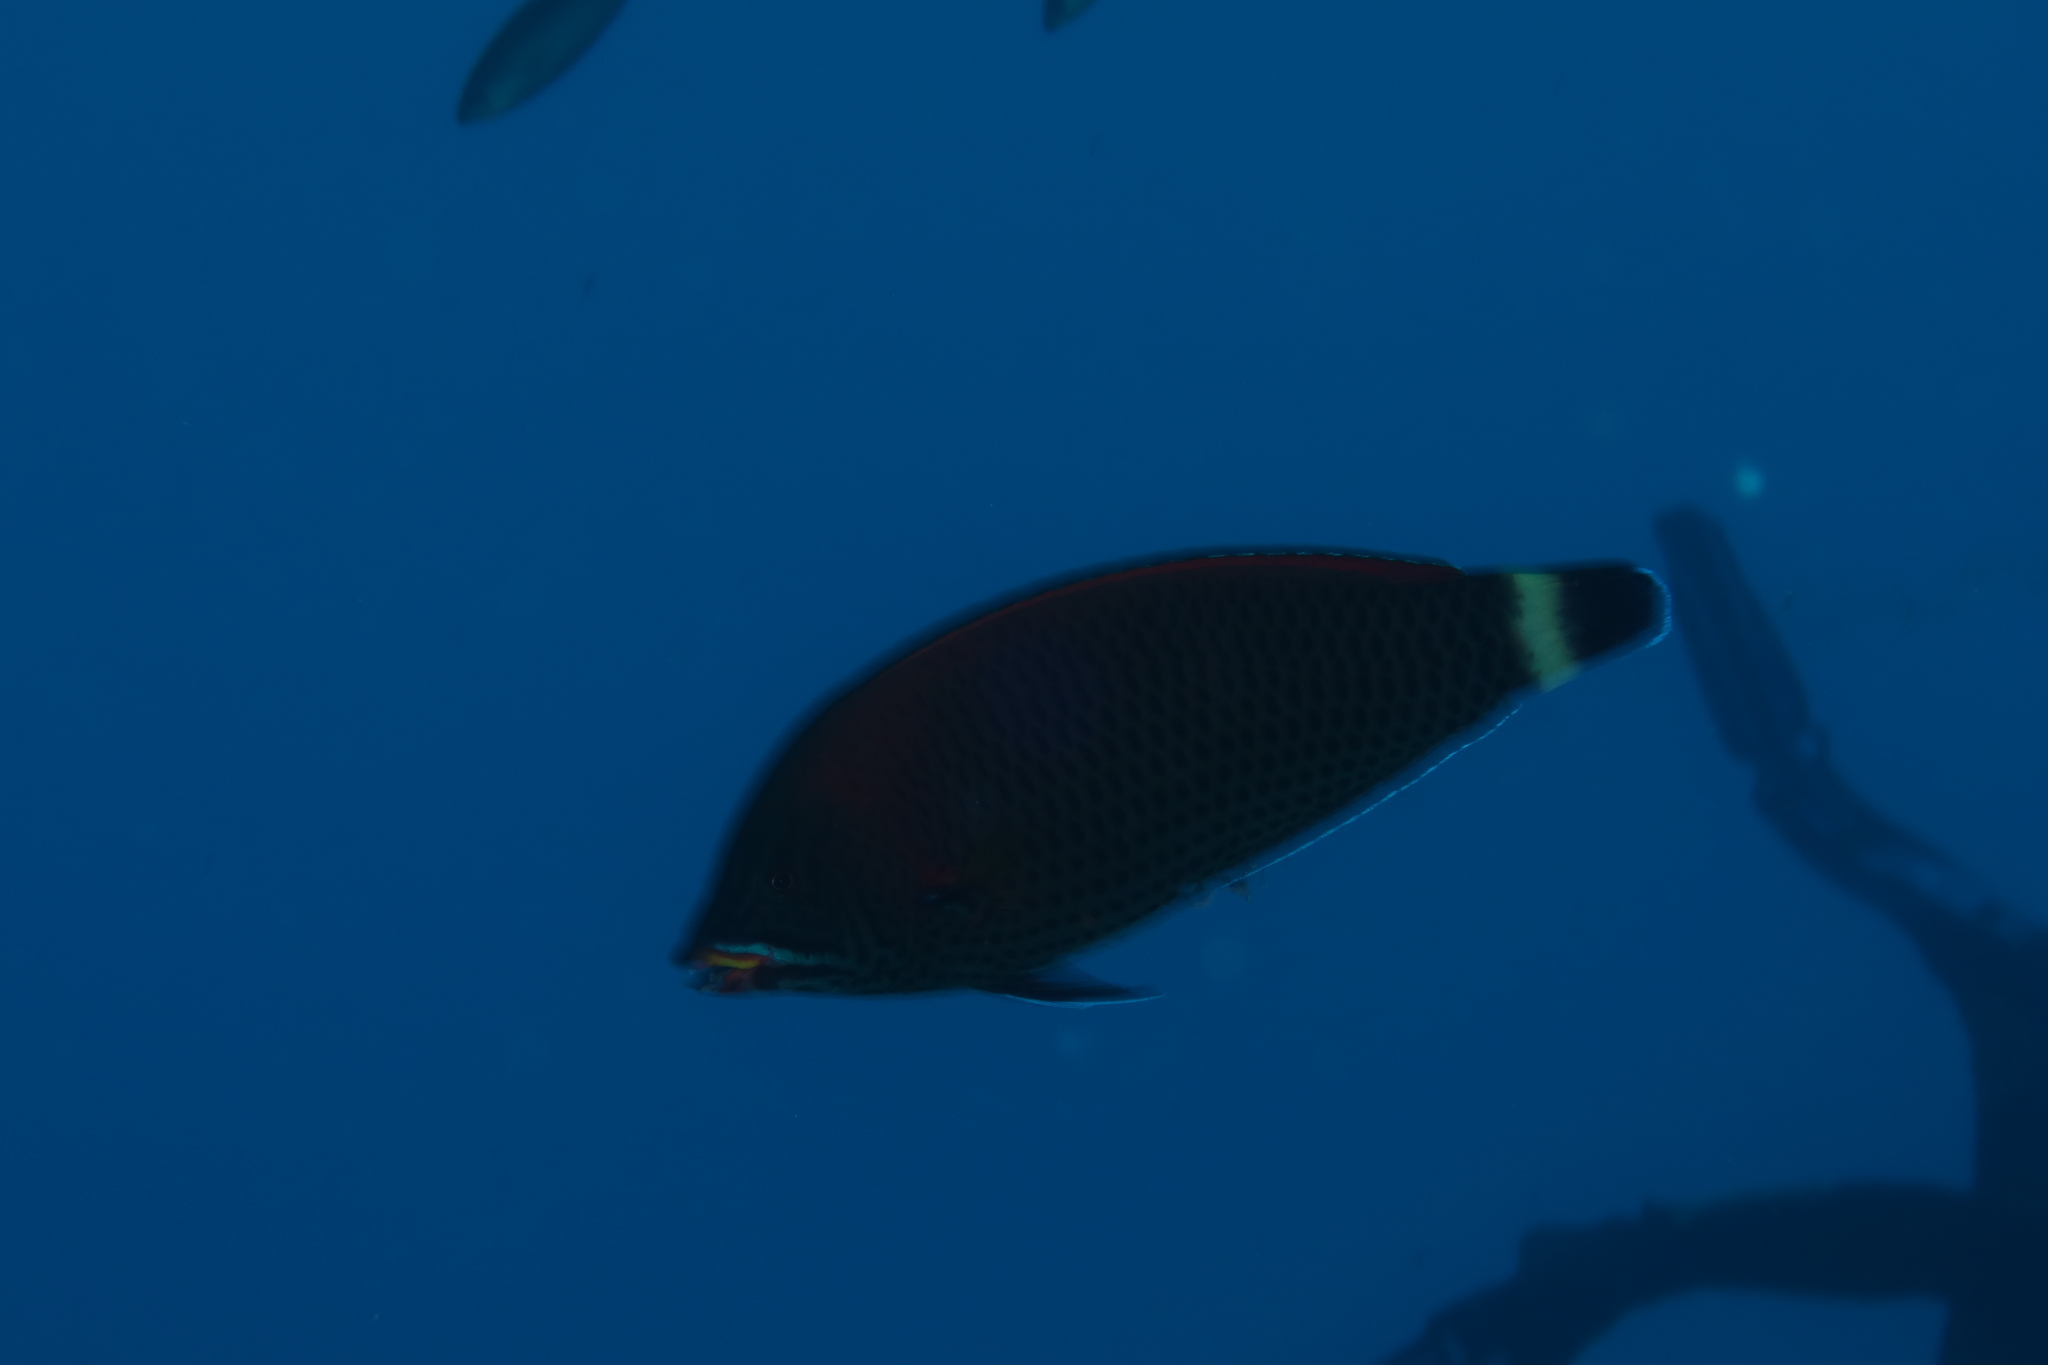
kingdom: Animalia
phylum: Chordata
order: Perciformes
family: Labridae
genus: Pseudodax
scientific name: Pseudodax moluccanus
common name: Chiseltooth wrasse
